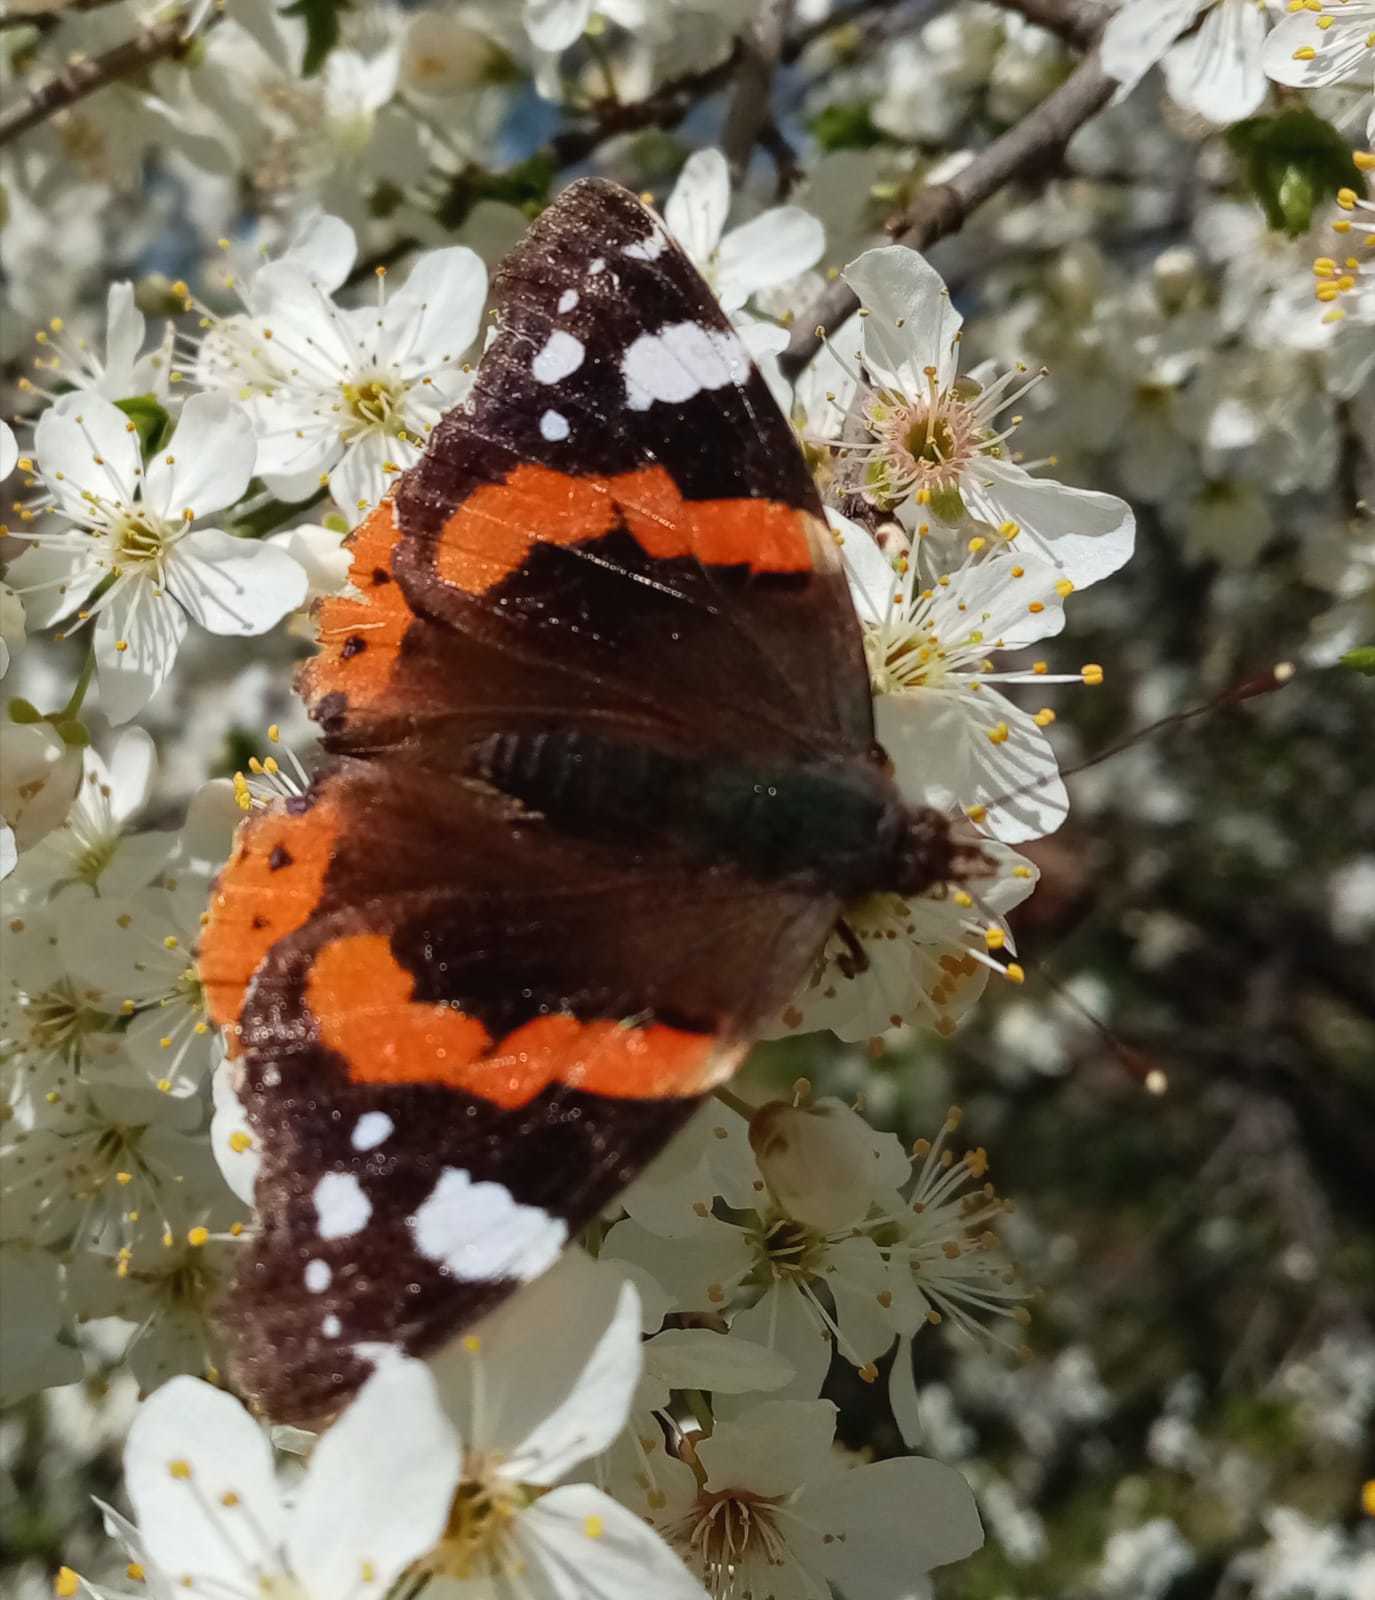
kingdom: Animalia
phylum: Arthropoda
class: Insecta
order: Lepidoptera
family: Nymphalidae
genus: Vanessa
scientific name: Vanessa atalanta
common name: Red admiral
